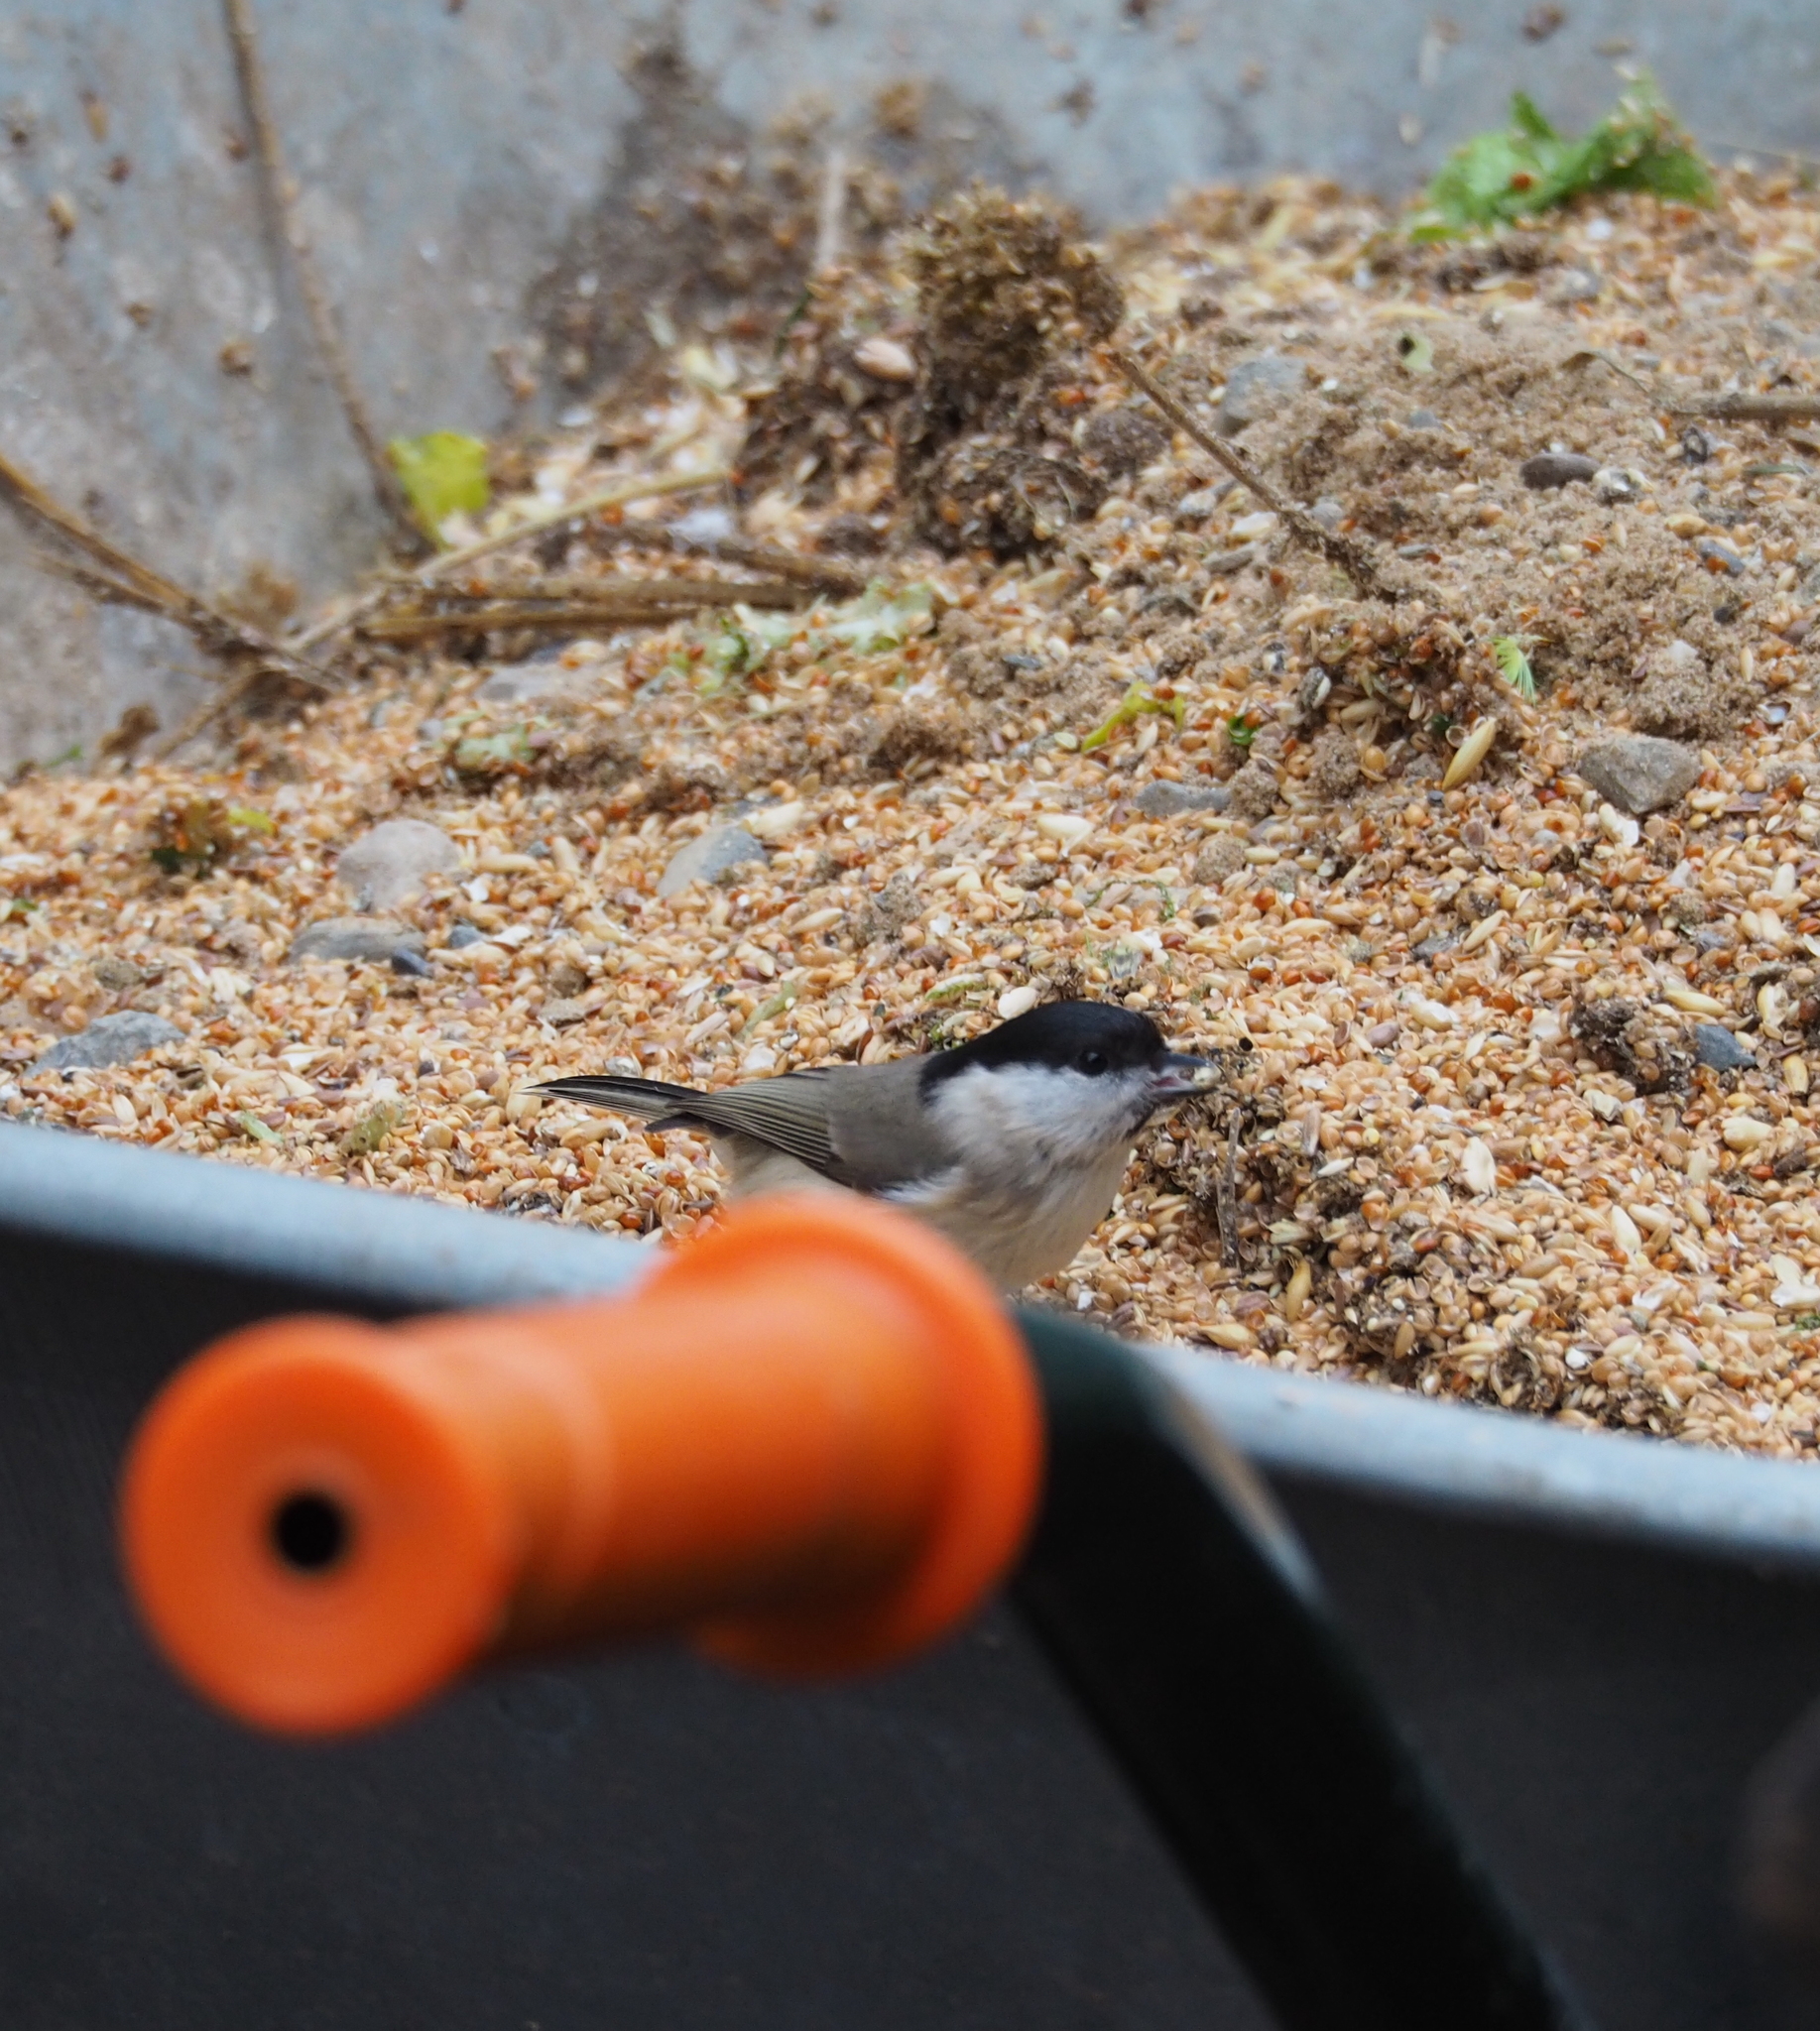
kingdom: Animalia
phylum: Chordata
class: Aves
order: Passeriformes
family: Paridae
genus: Poecile
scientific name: Poecile palustris
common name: Marsh tit
